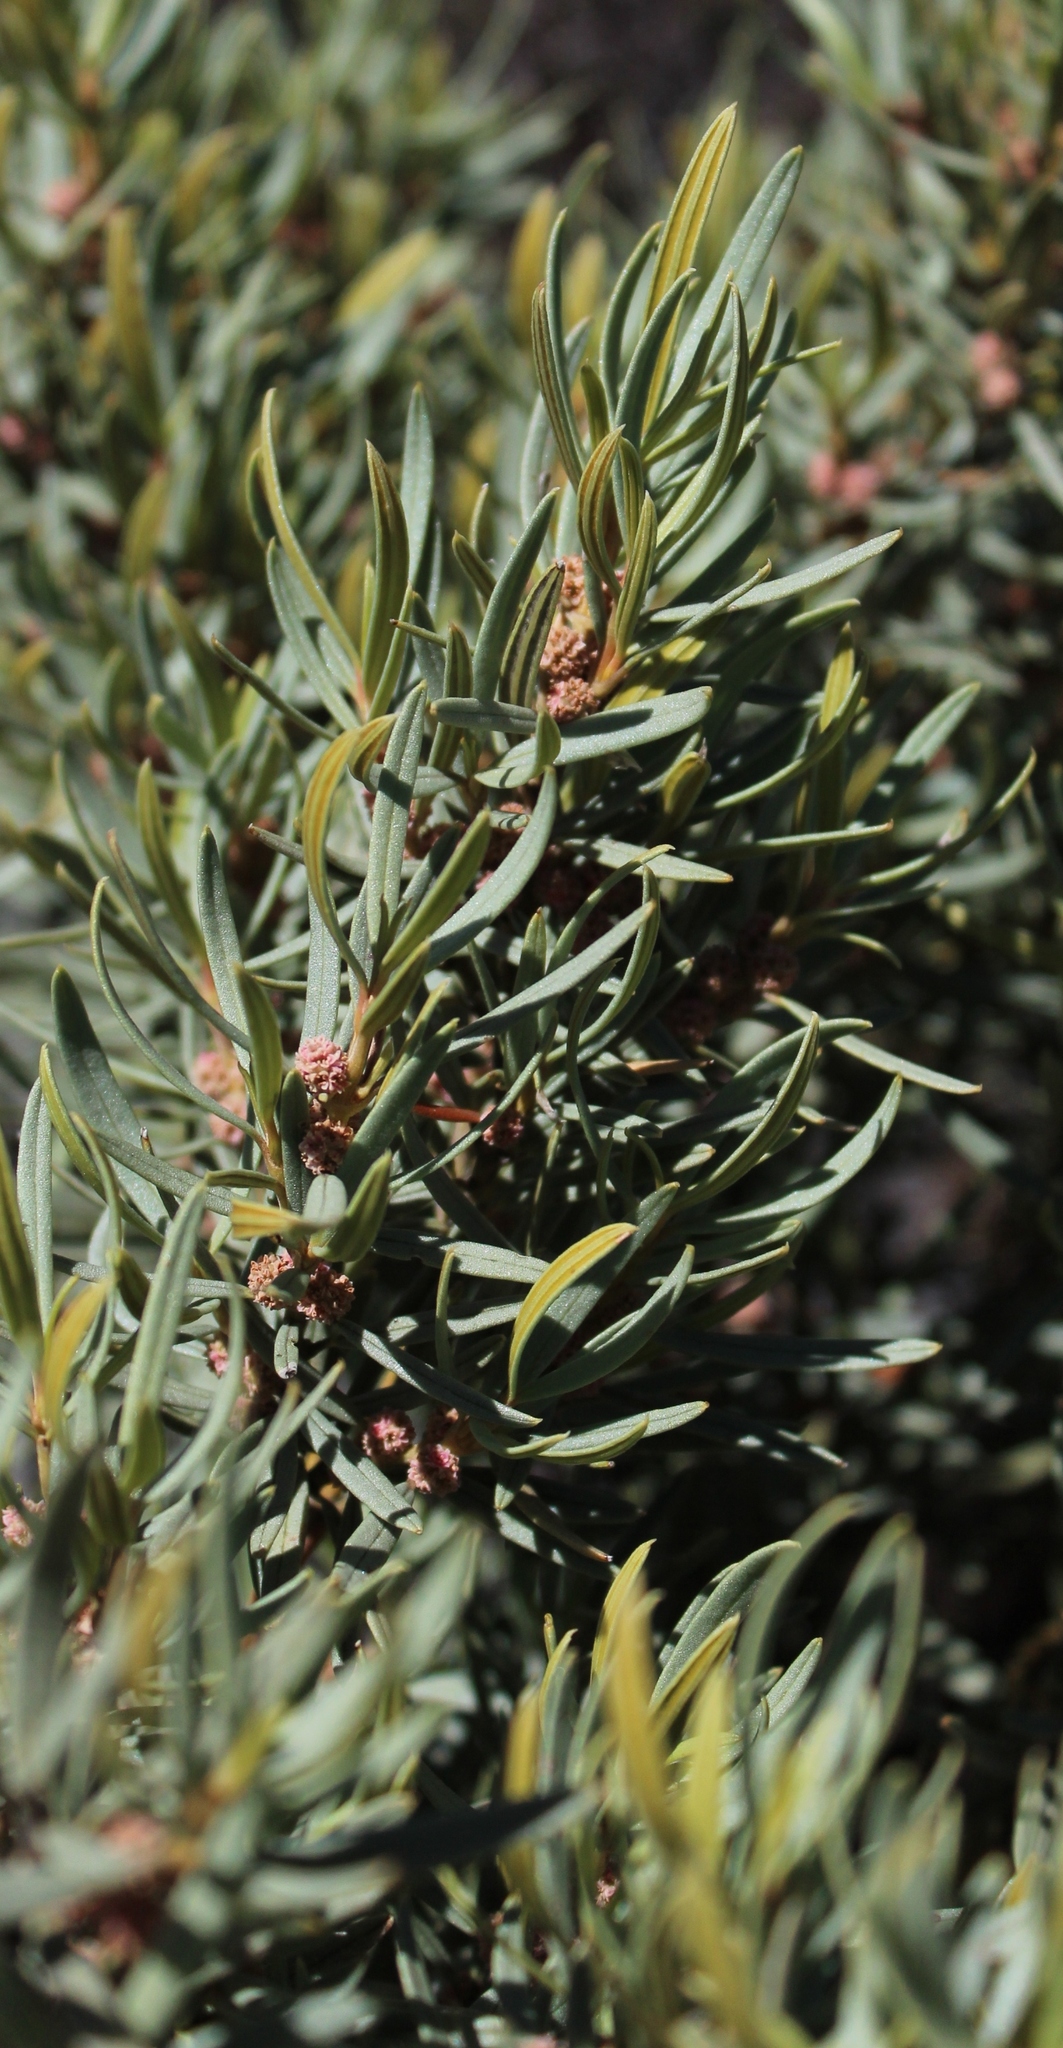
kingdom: Plantae
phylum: Tracheophyta
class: Magnoliopsida
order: Cornales
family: Grubbiaceae
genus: Grubbia
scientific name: Grubbia tomentosa
